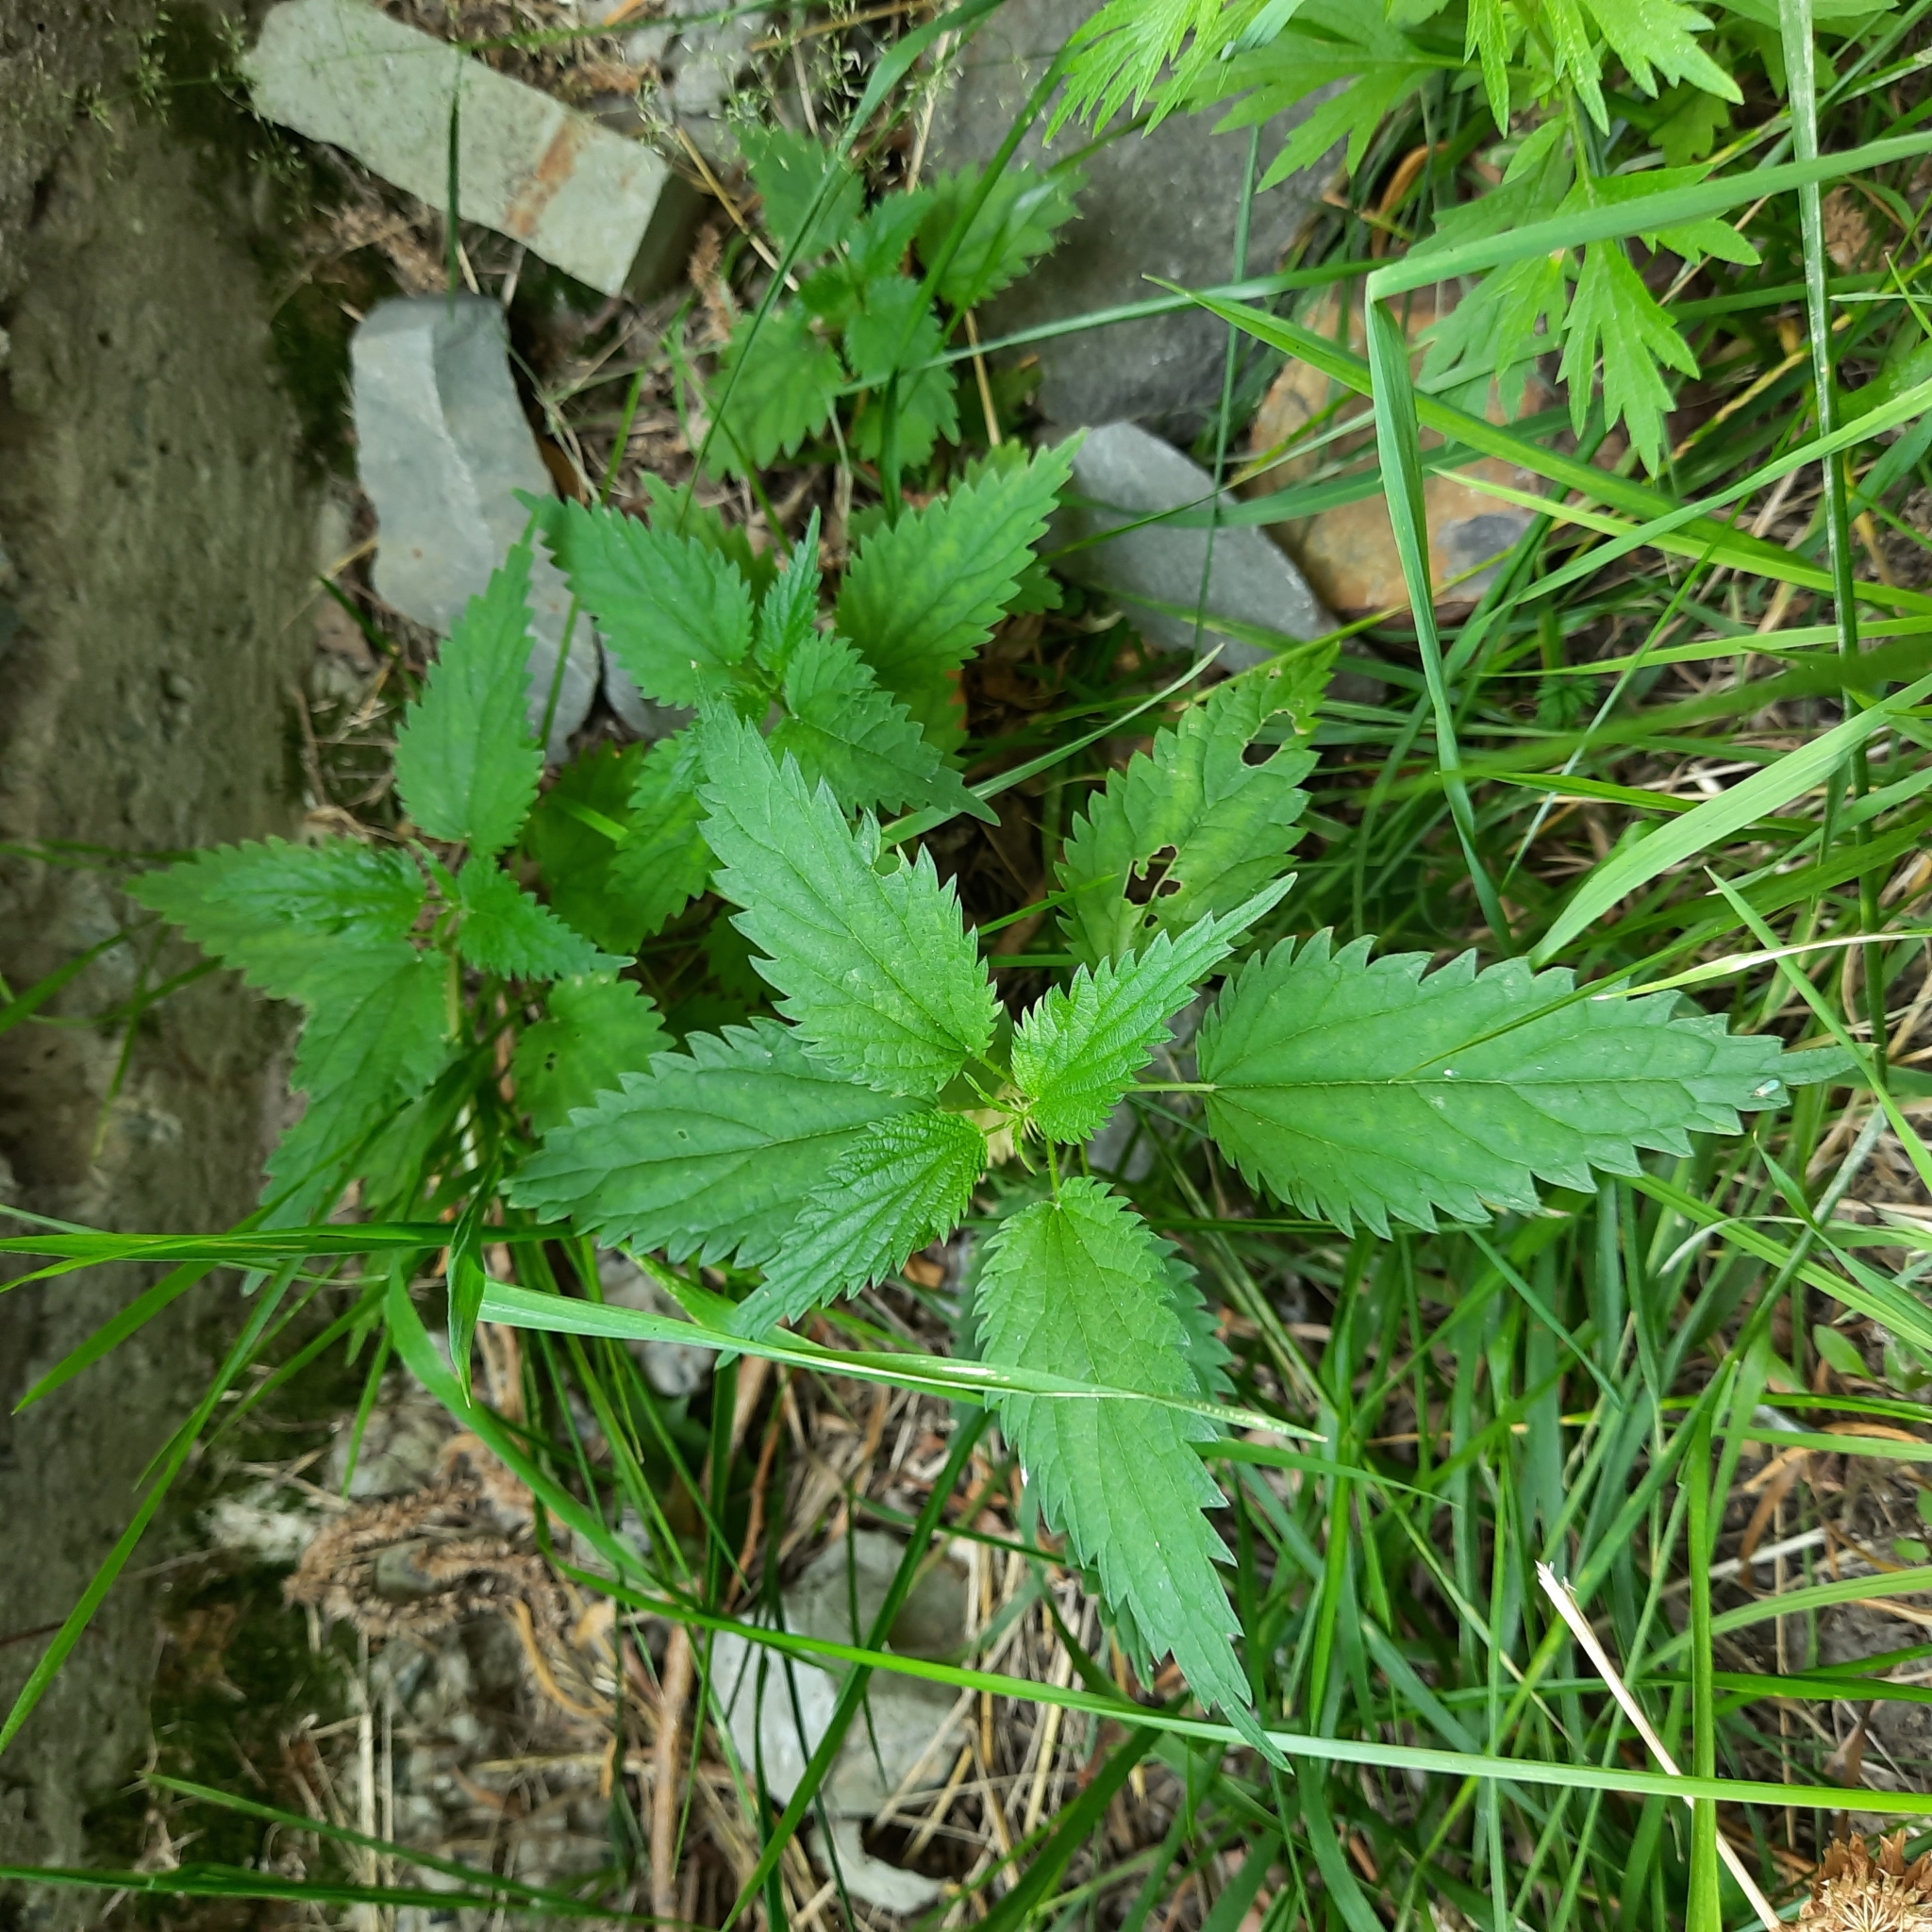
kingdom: Plantae
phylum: Tracheophyta
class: Magnoliopsida
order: Rosales
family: Urticaceae
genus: Urtica
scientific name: Urtica dioica
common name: Common nettle
